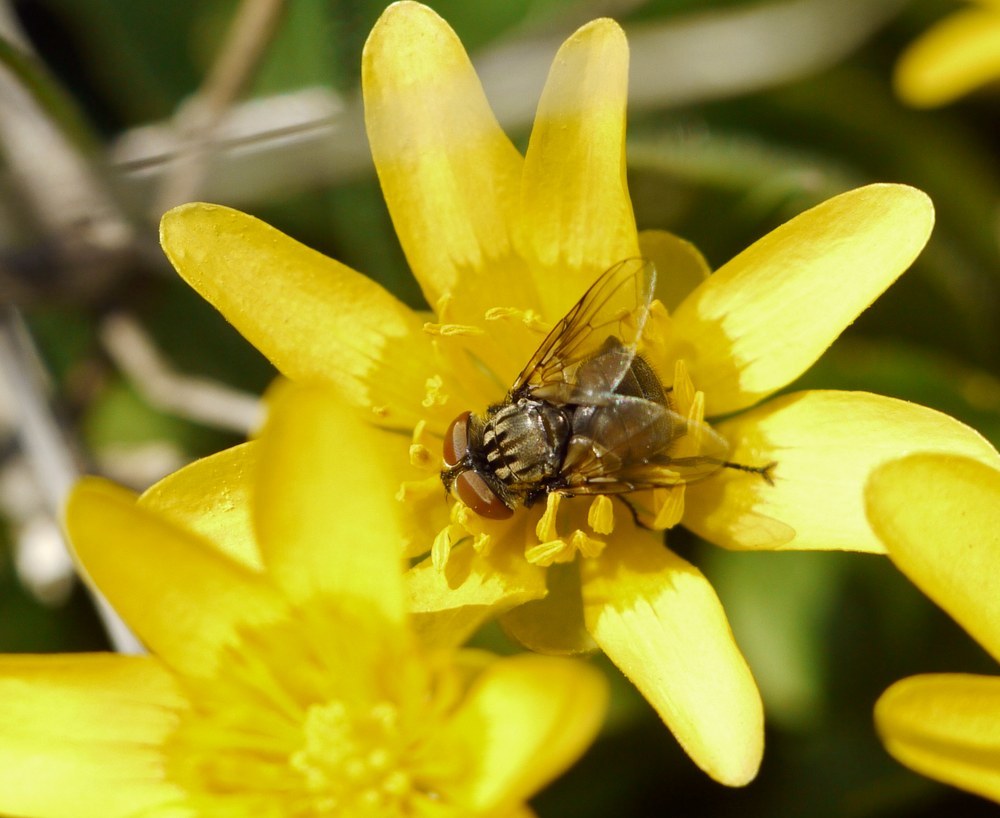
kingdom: Animalia
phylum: Arthropoda
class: Insecta
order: Diptera
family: Tachinidae
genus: Phasia
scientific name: Phasia subcoleoptrata
